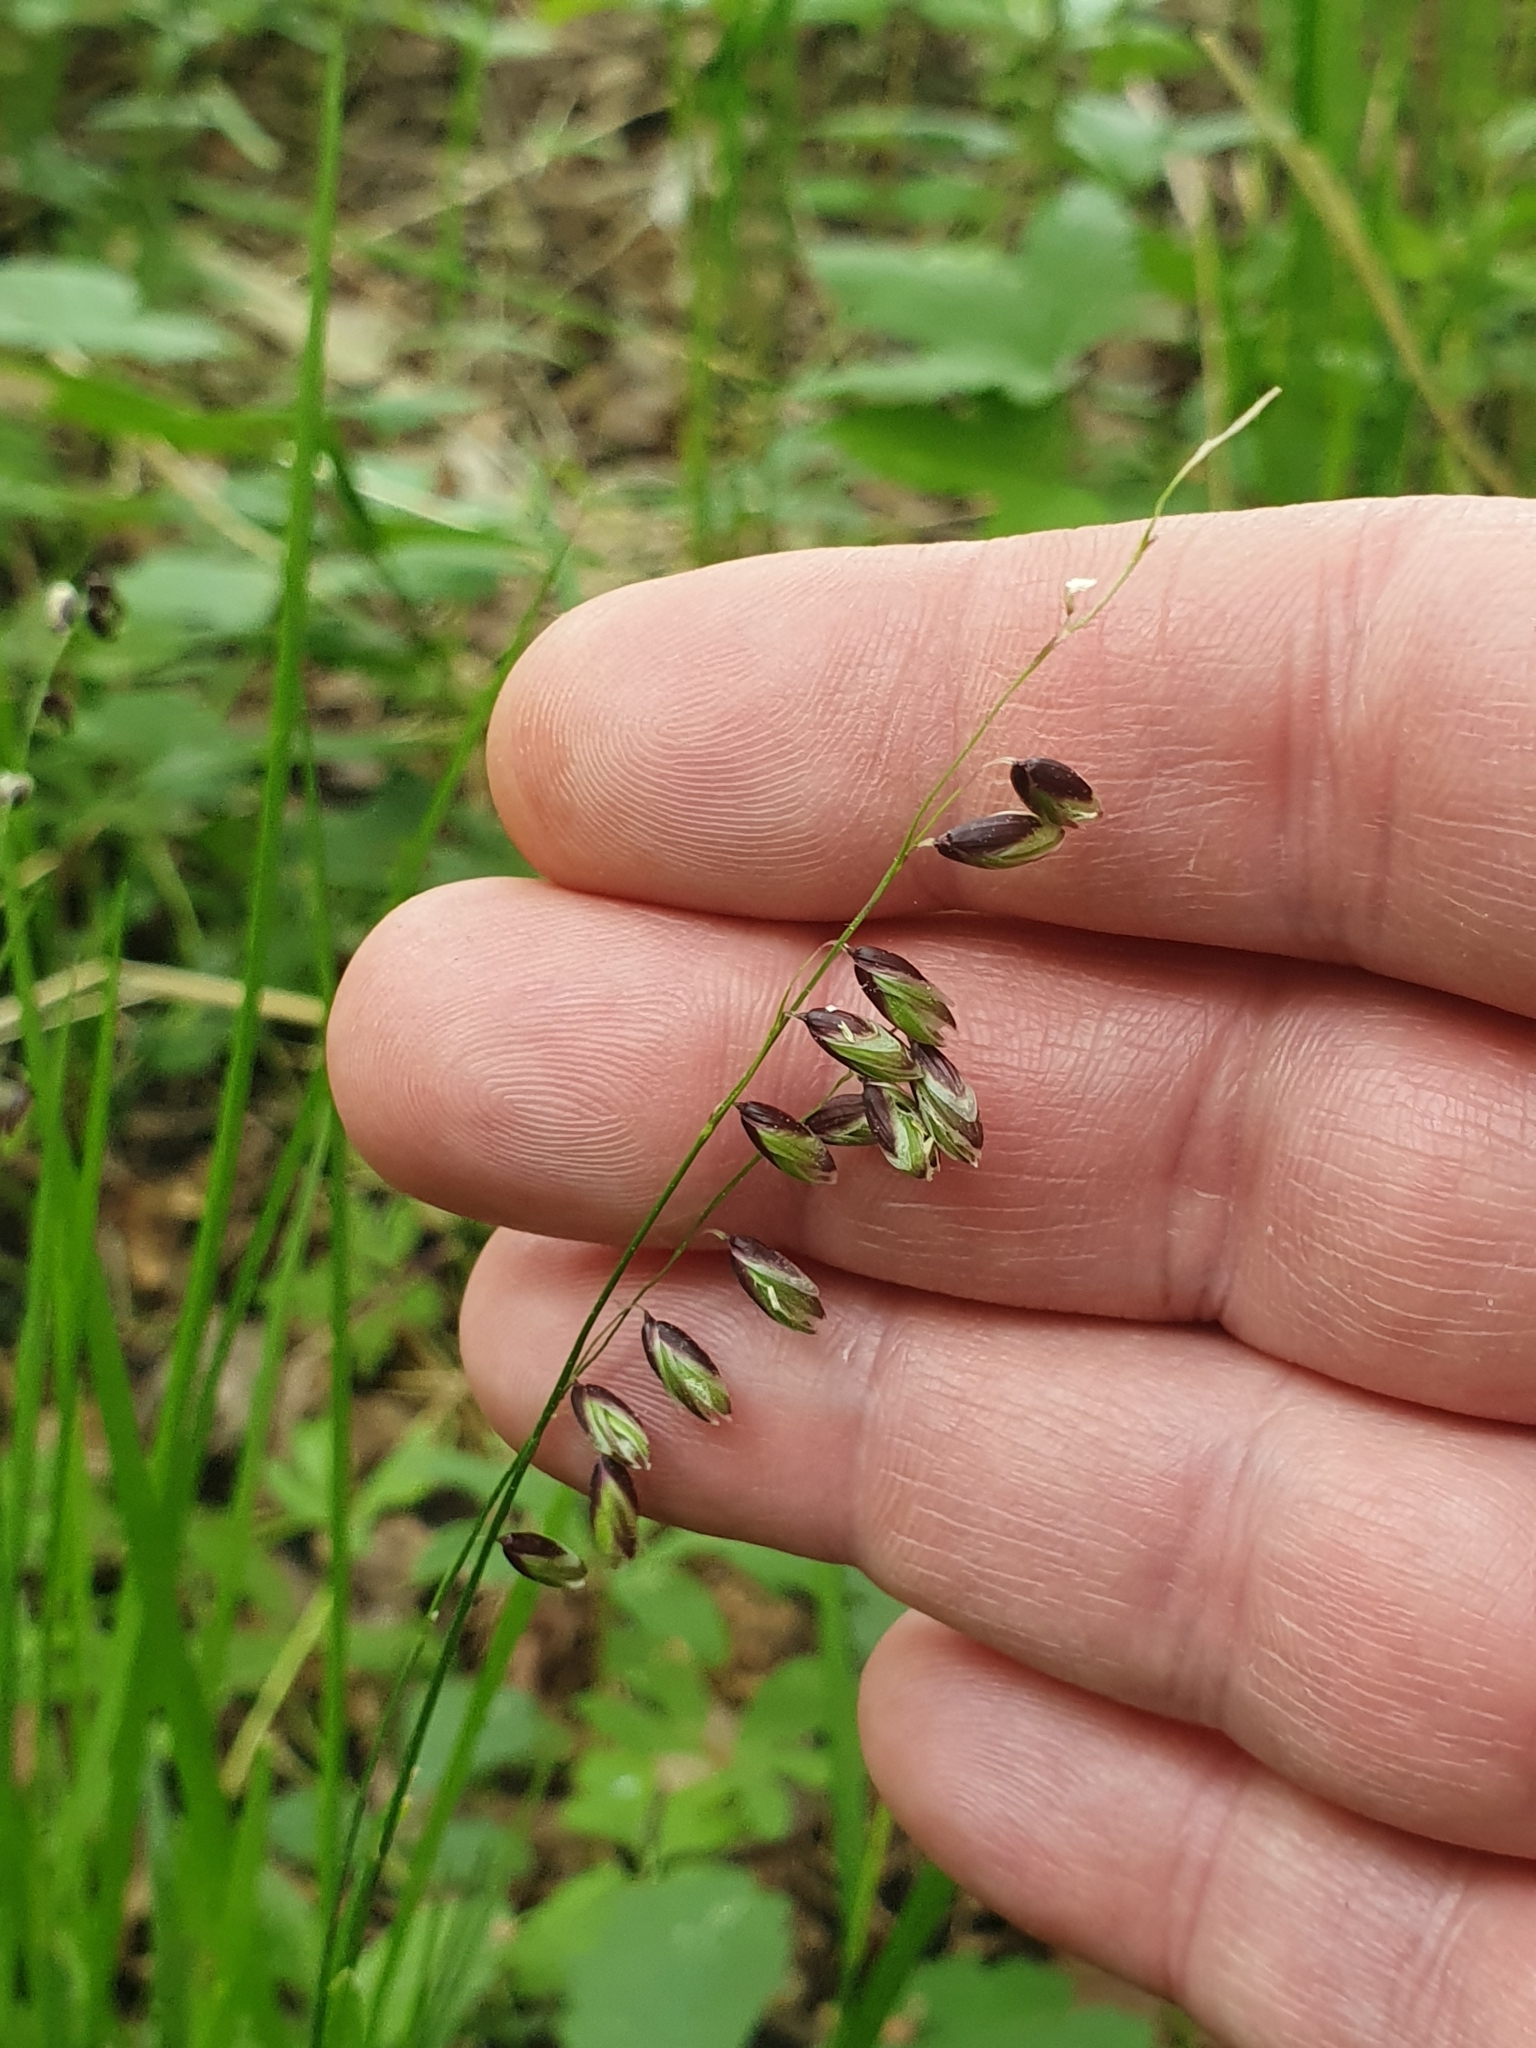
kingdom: Plantae
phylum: Tracheophyta
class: Liliopsida
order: Poales
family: Poaceae
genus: Melica
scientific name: Melica nutans
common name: Mountain melick
